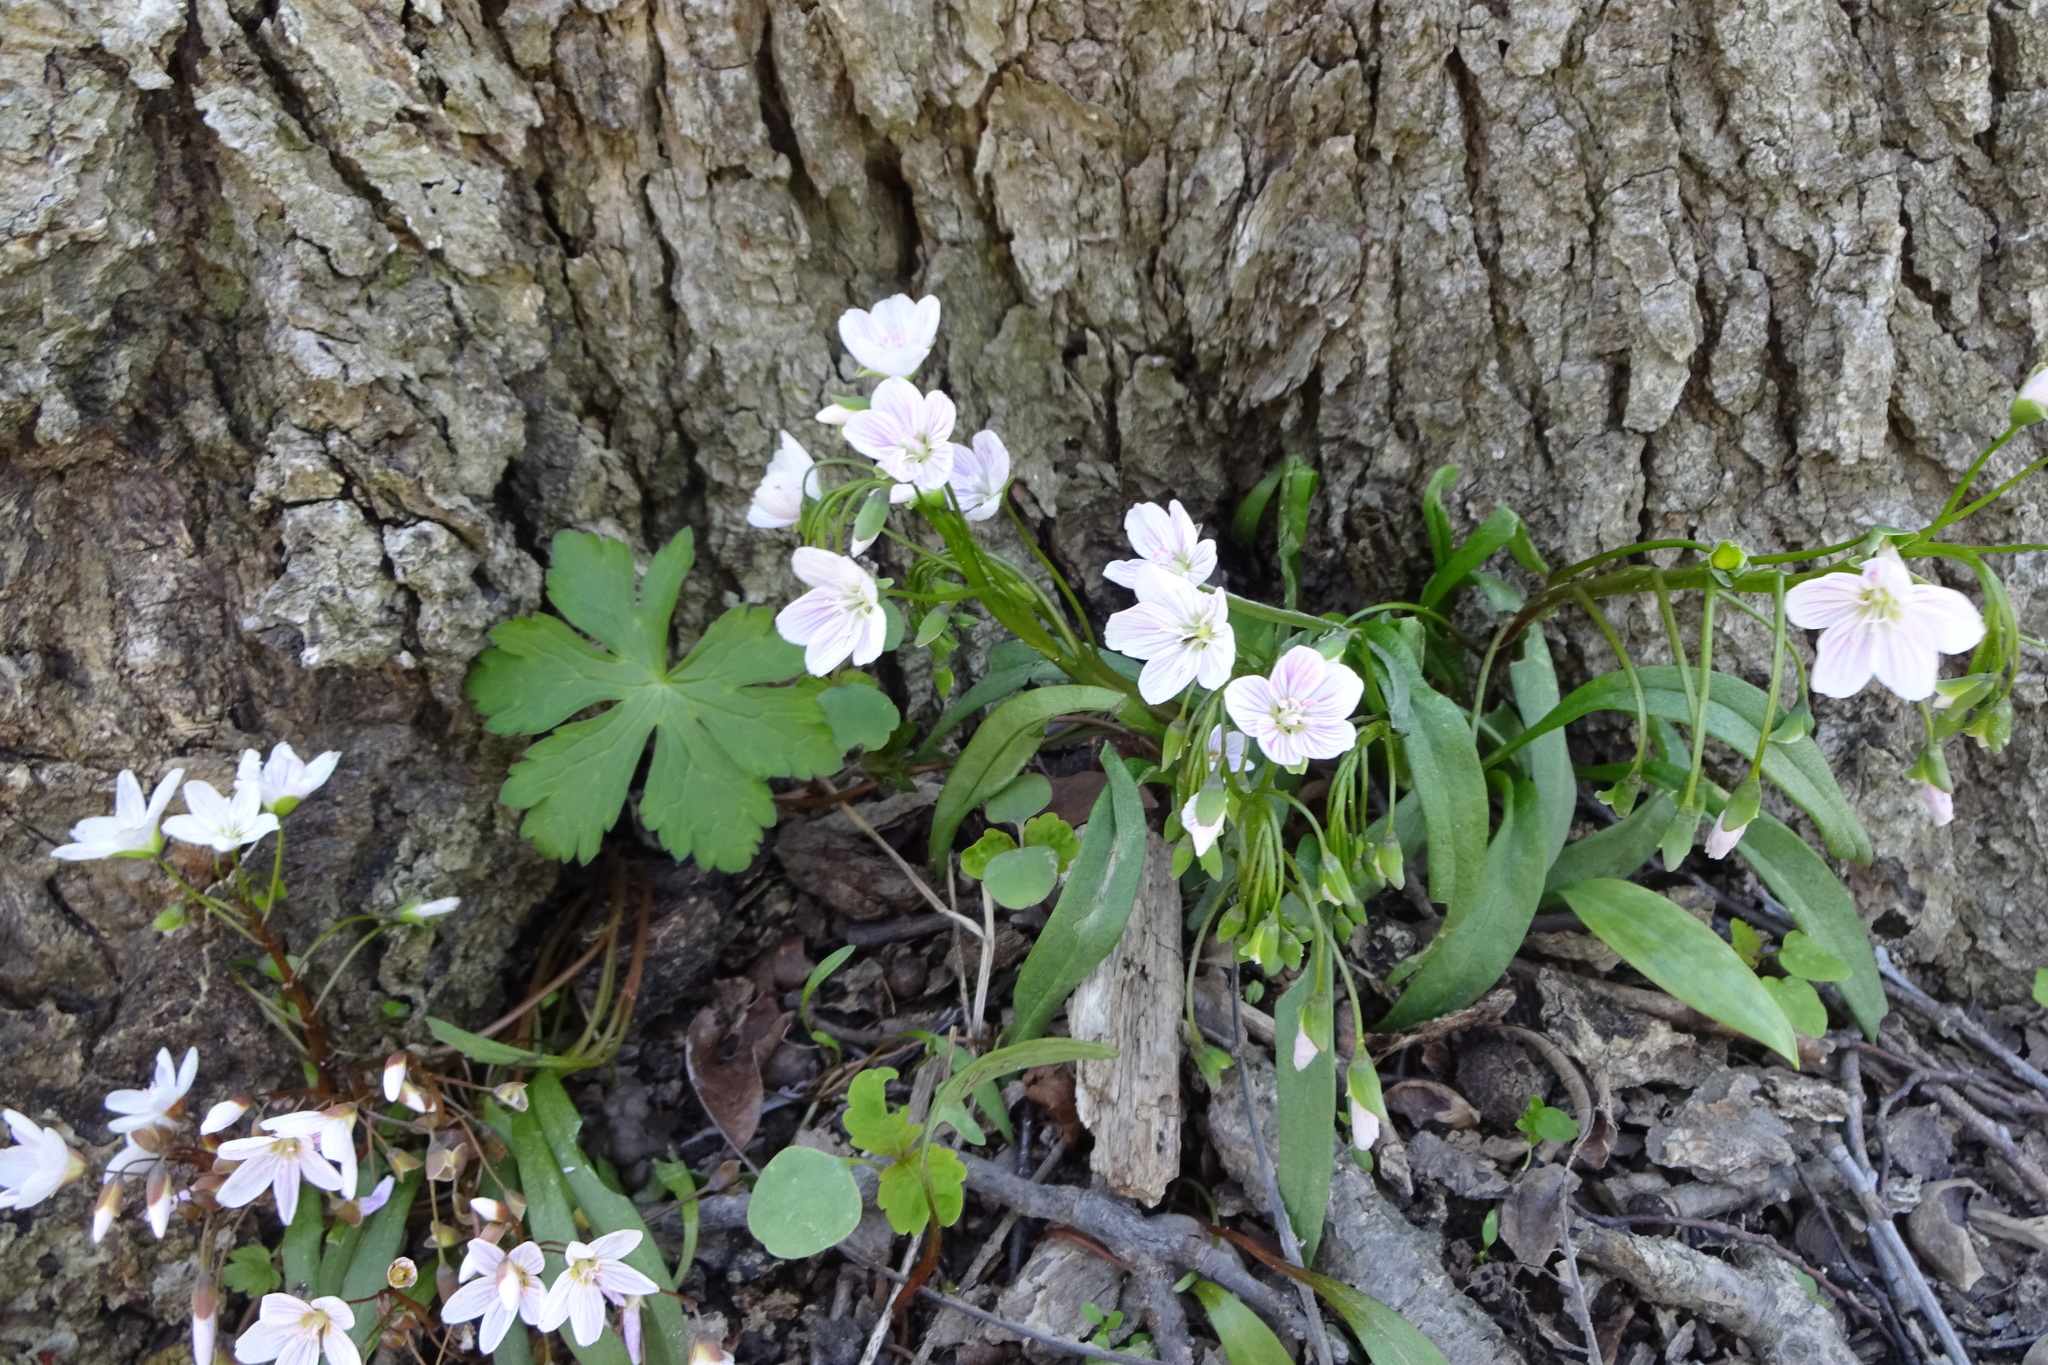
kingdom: Plantae
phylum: Tracheophyta
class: Magnoliopsida
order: Caryophyllales
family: Montiaceae
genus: Claytonia
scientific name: Claytonia virginica
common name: Virginia springbeauty
